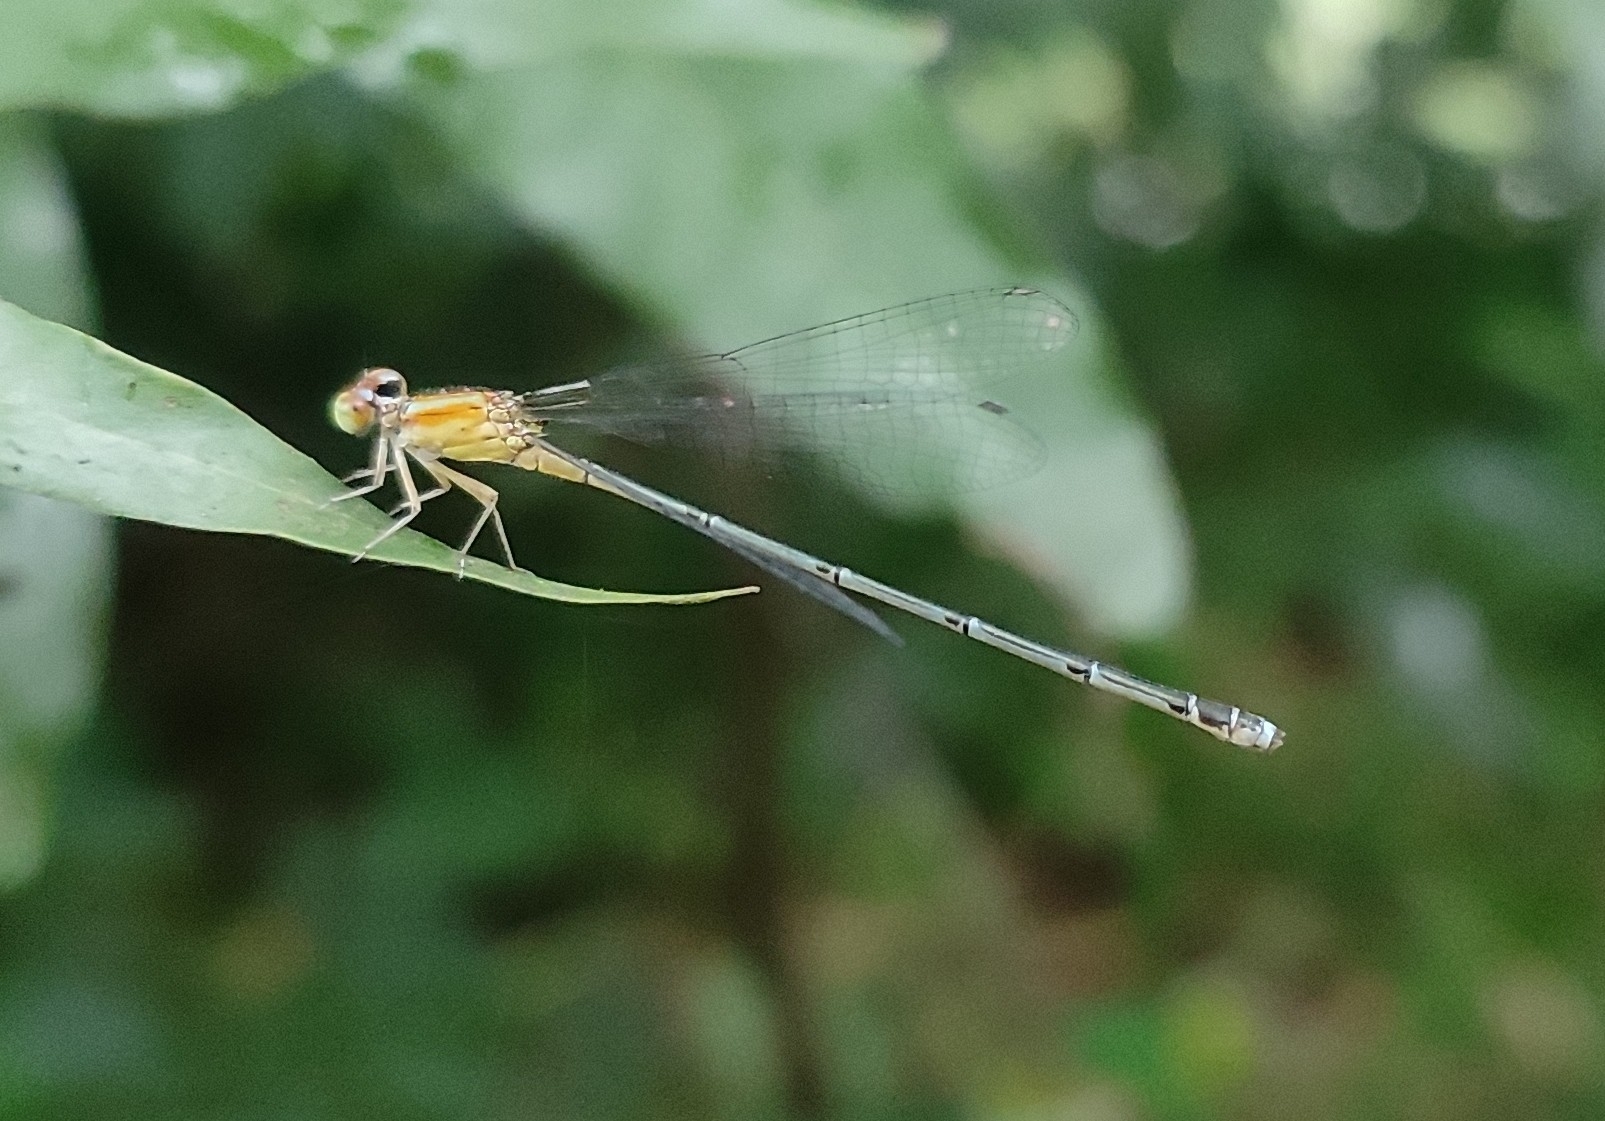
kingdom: Animalia
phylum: Arthropoda
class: Insecta
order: Odonata
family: Coenagrionidae
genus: Pseudagrion
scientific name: Pseudagrion microcephalum
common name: Blue riverdamsel
